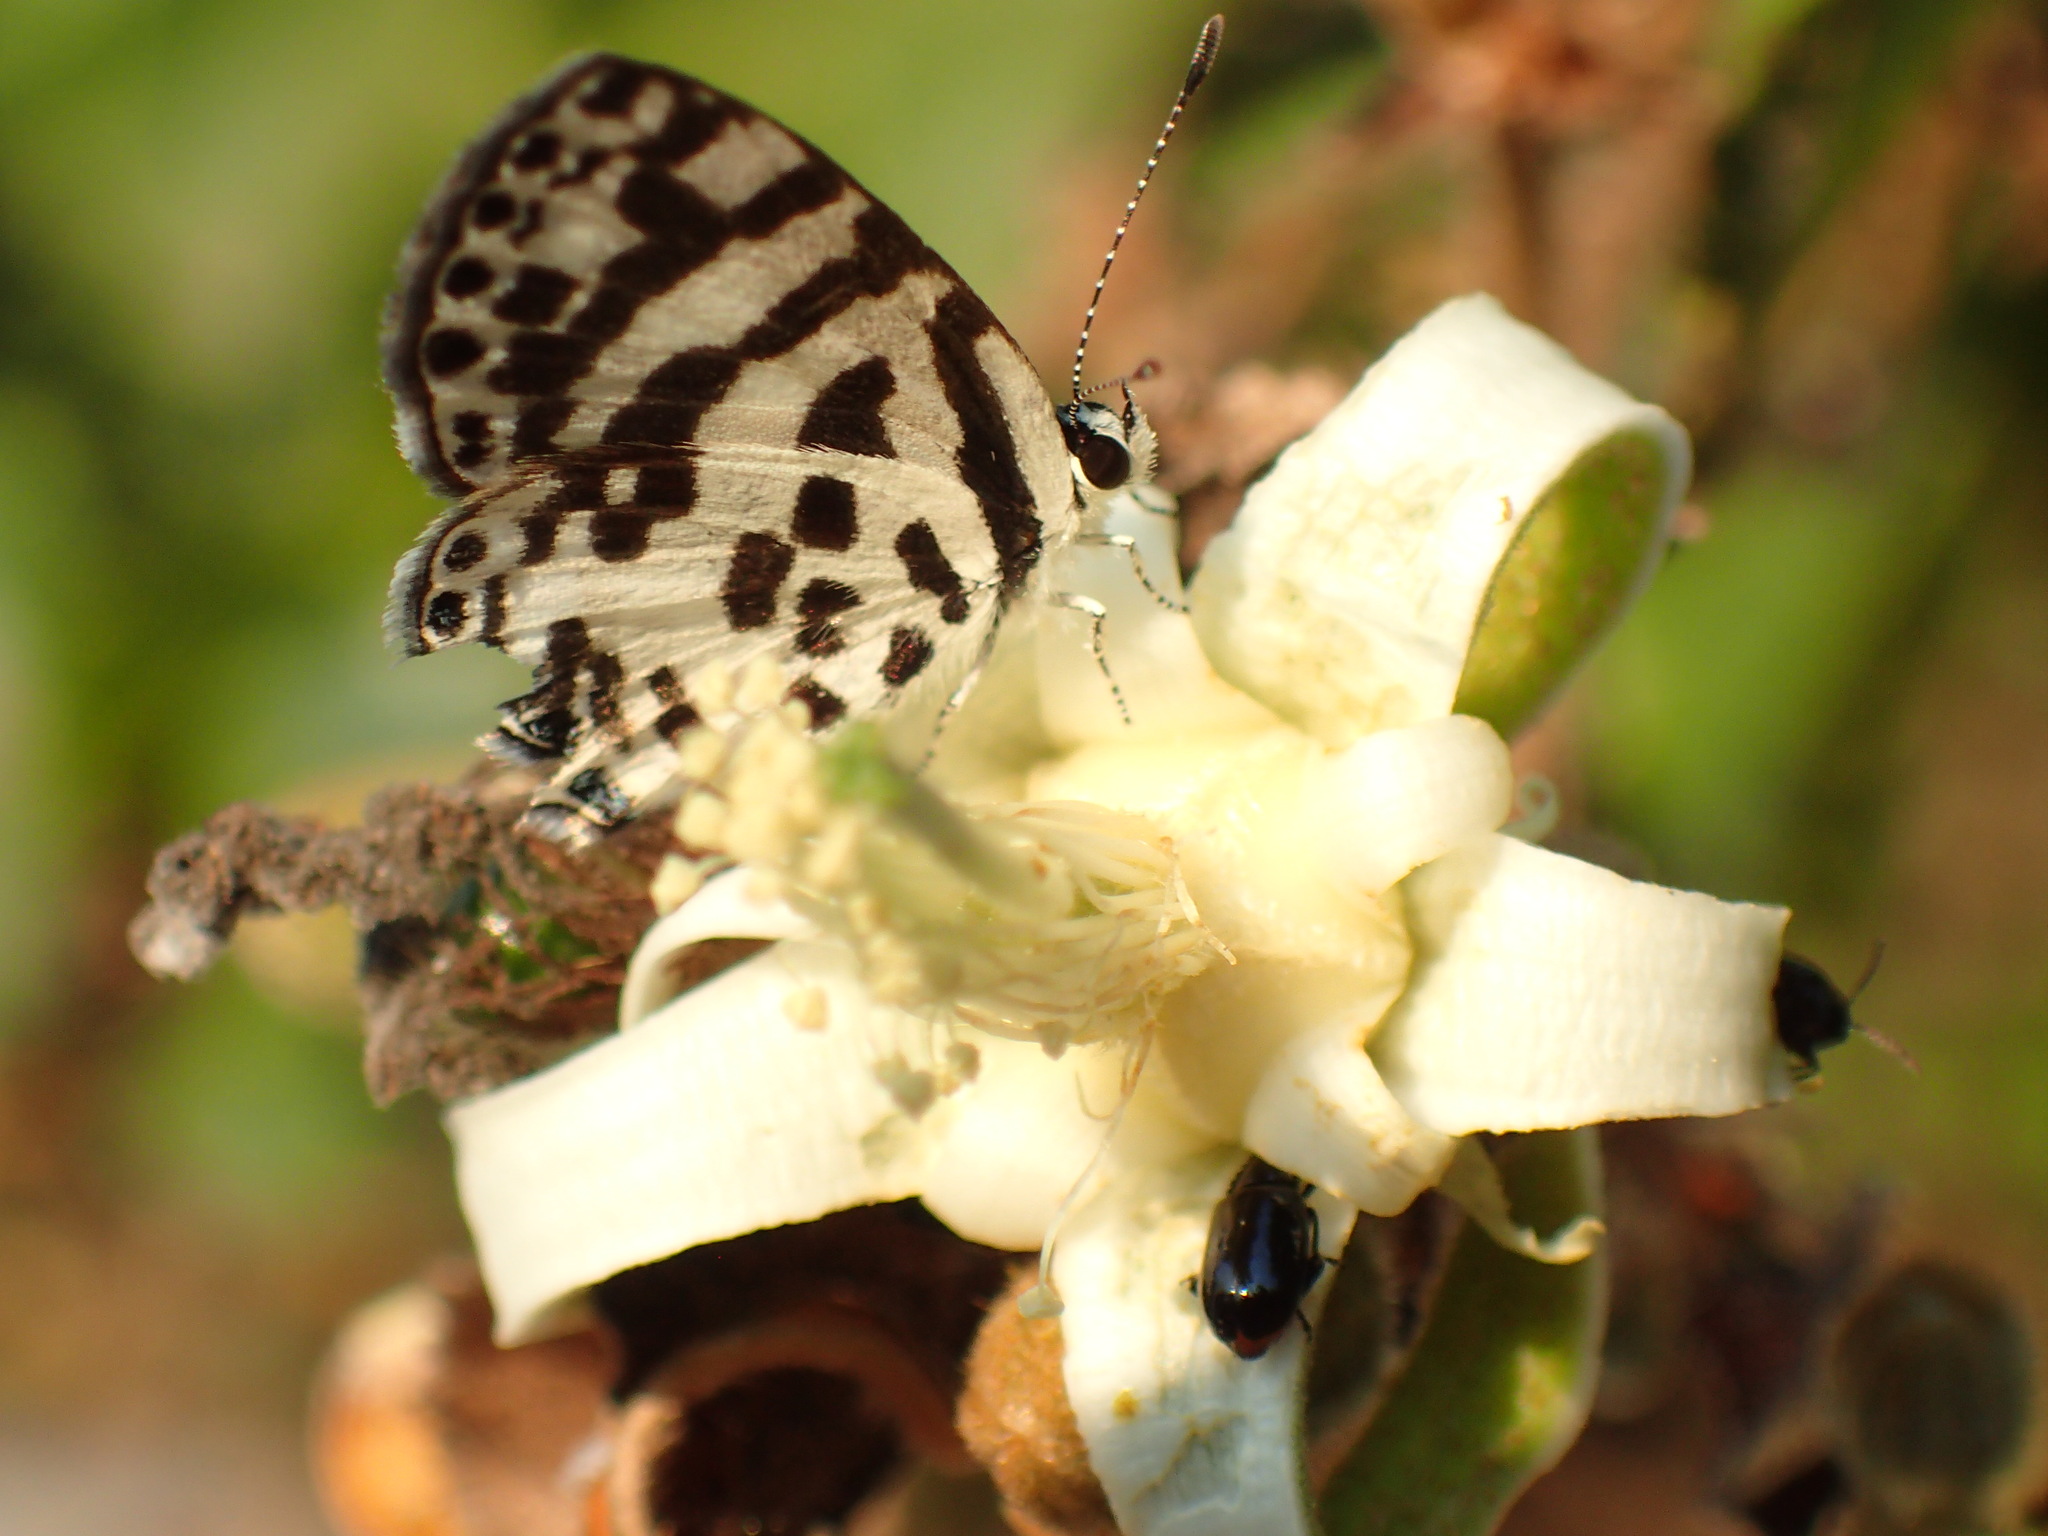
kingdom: Animalia
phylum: Arthropoda
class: Insecta
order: Lepidoptera
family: Lycaenidae
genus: Castalius
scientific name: Castalius melaena
